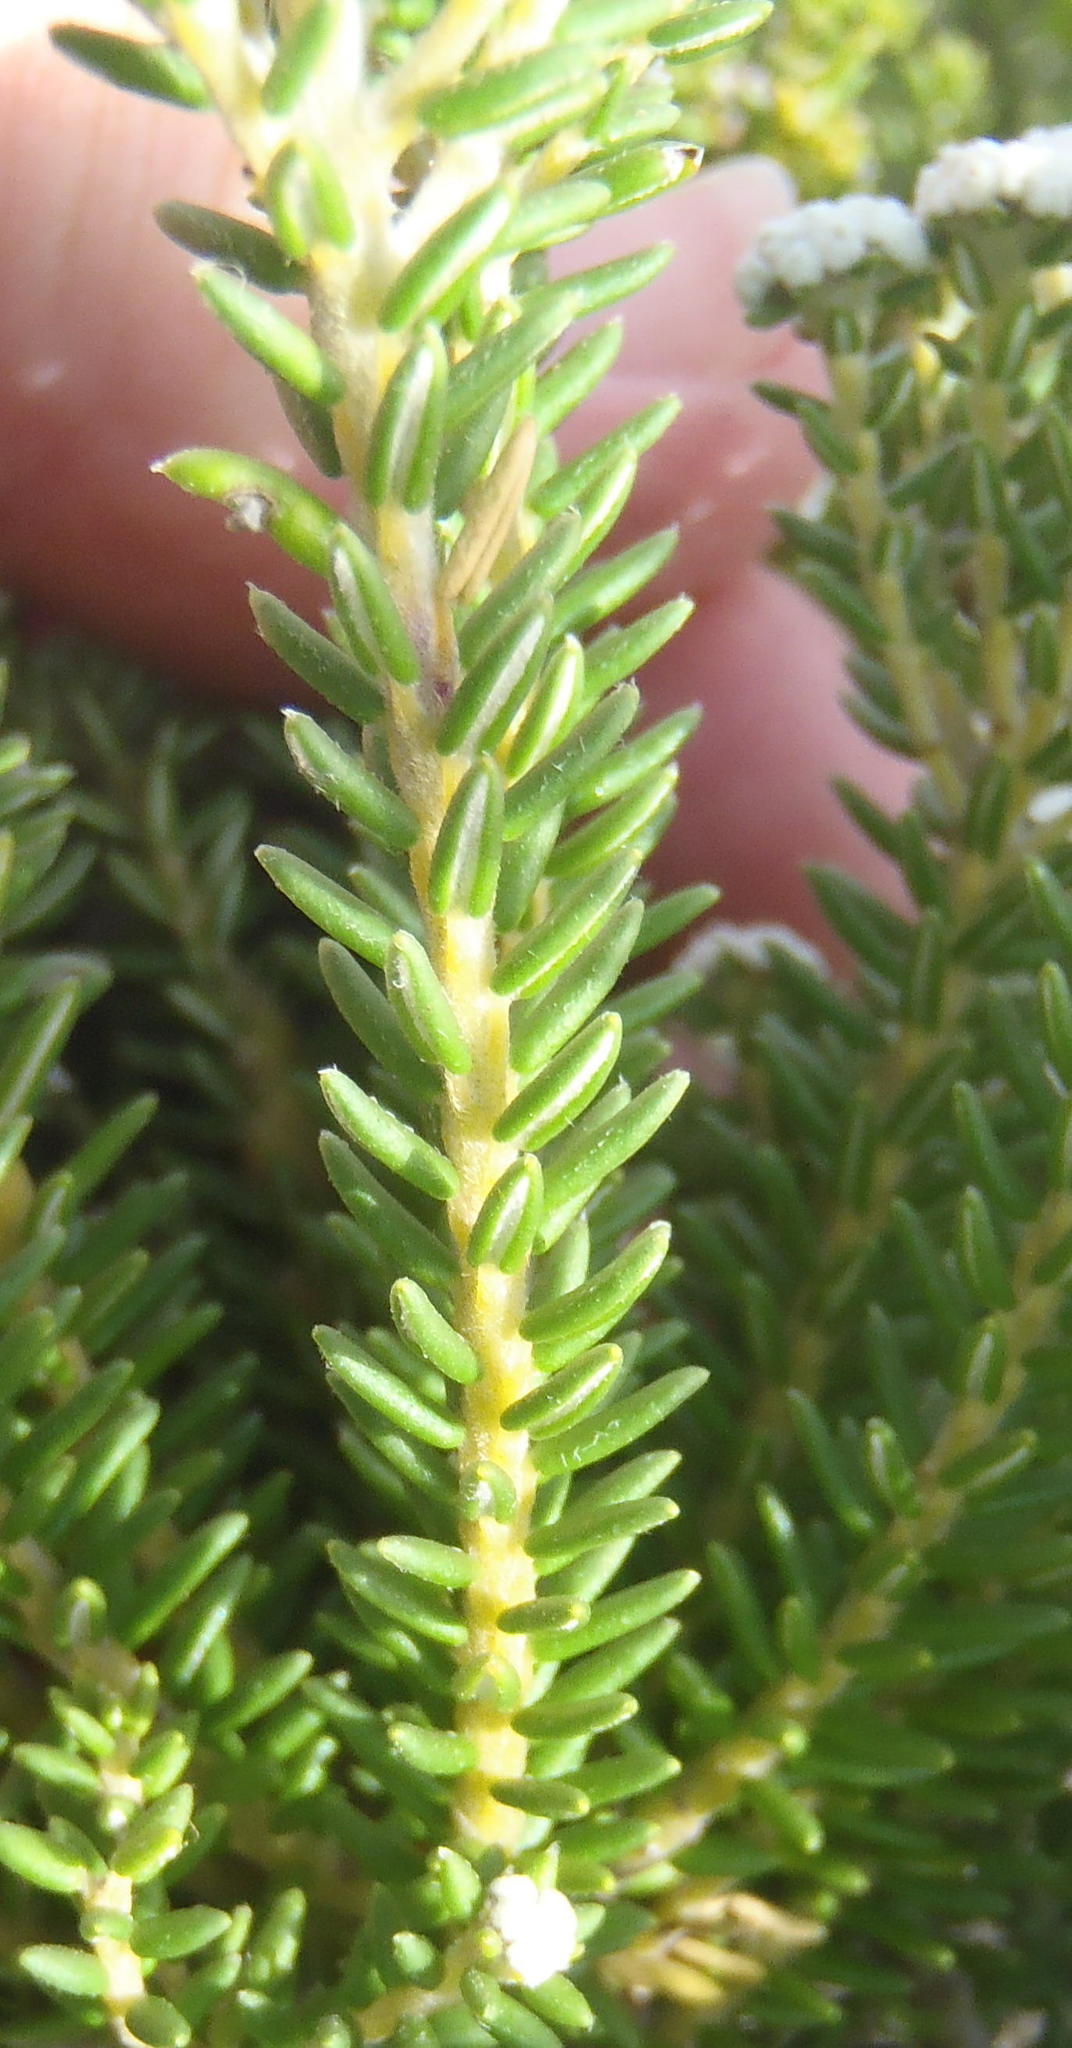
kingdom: Plantae
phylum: Tracheophyta
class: Magnoliopsida
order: Rosales
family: Rhamnaceae
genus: Phylica
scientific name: Phylica ericoides
